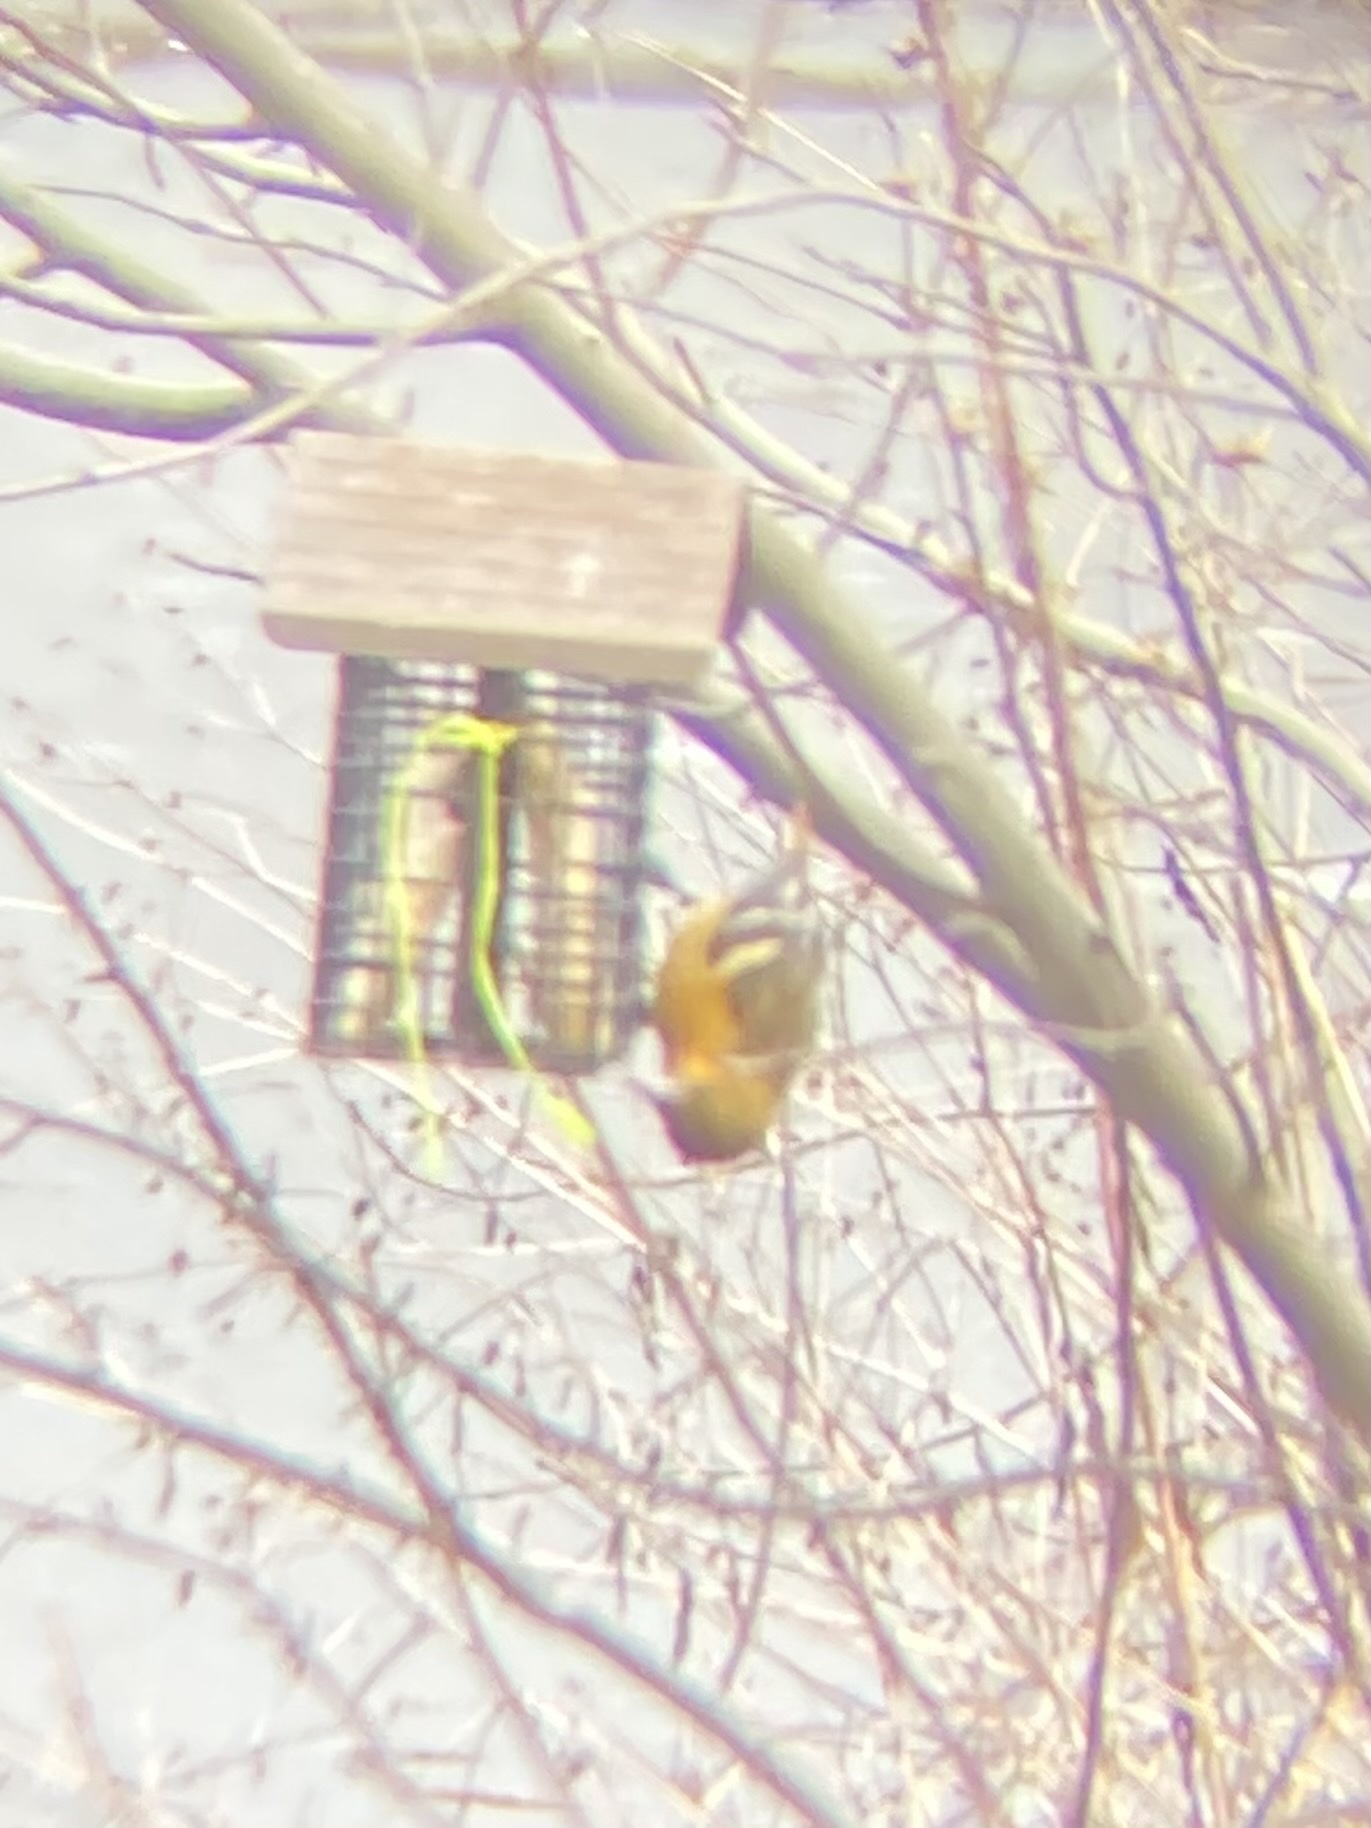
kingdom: Animalia
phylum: Chordata
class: Aves
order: Passeriformes
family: Icteridae
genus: Icterus
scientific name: Icterus galbula
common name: Baltimore oriole
